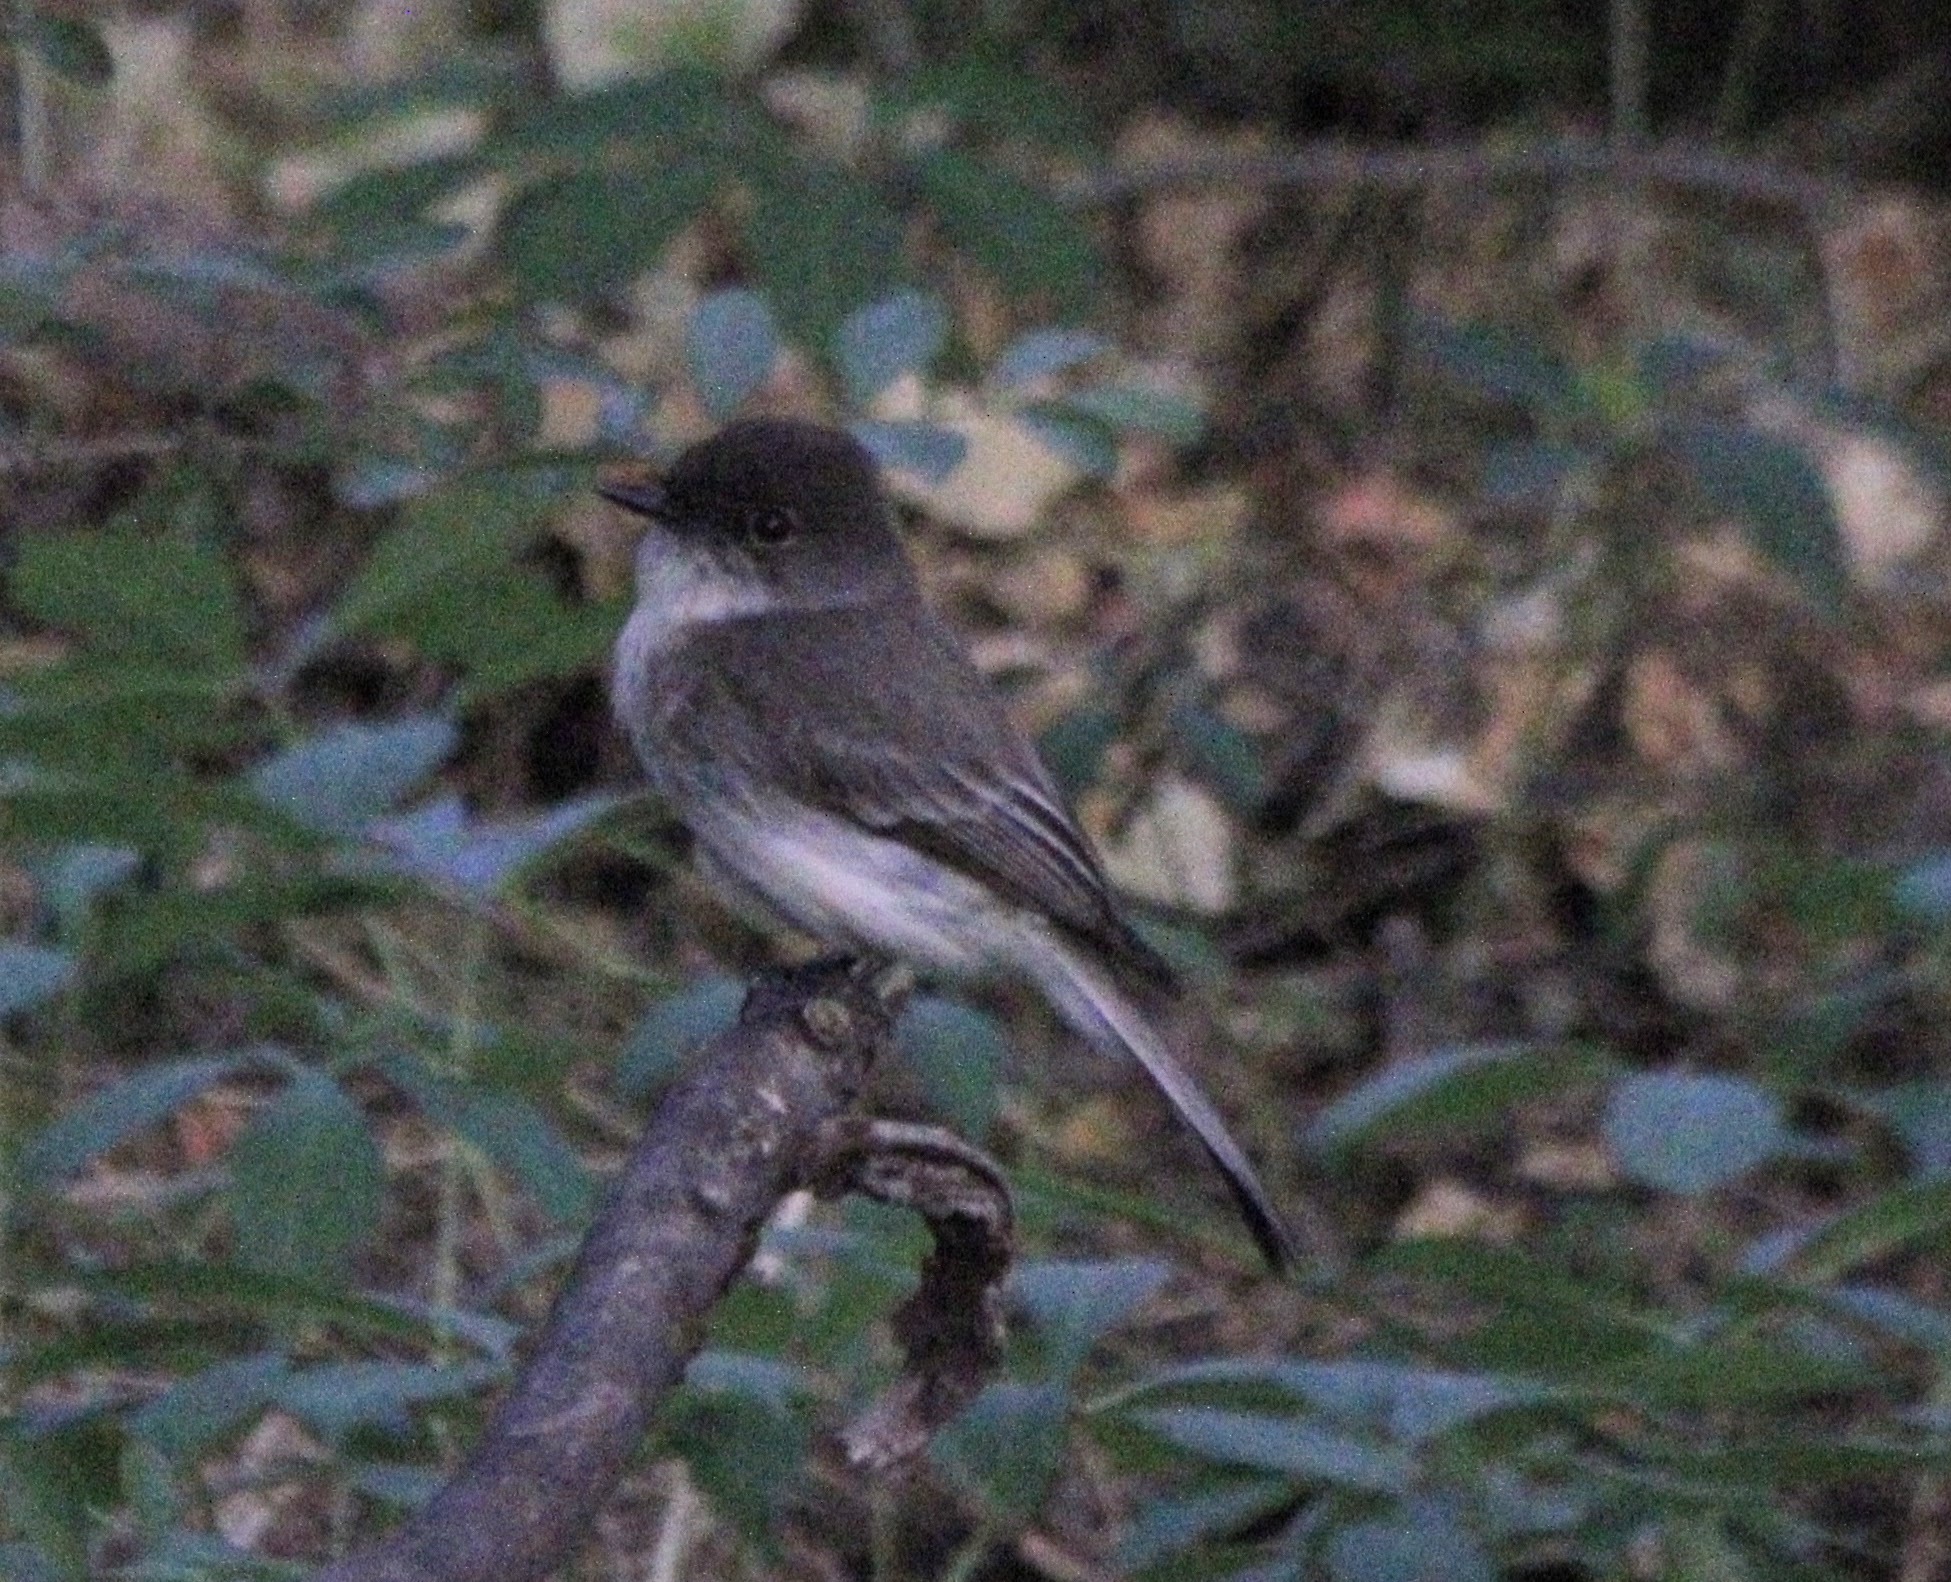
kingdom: Animalia
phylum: Chordata
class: Aves
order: Passeriformes
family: Tyrannidae
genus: Sayornis
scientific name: Sayornis phoebe
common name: Eastern phoebe
